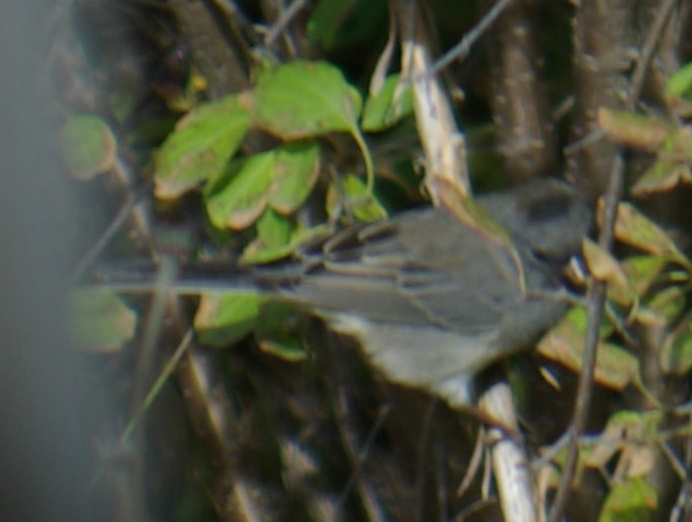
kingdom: Animalia
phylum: Chordata
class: Aves
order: Passeriformes
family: Passerellidae
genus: Junco
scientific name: Junco hyemalis
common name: Dark-eyed junco
